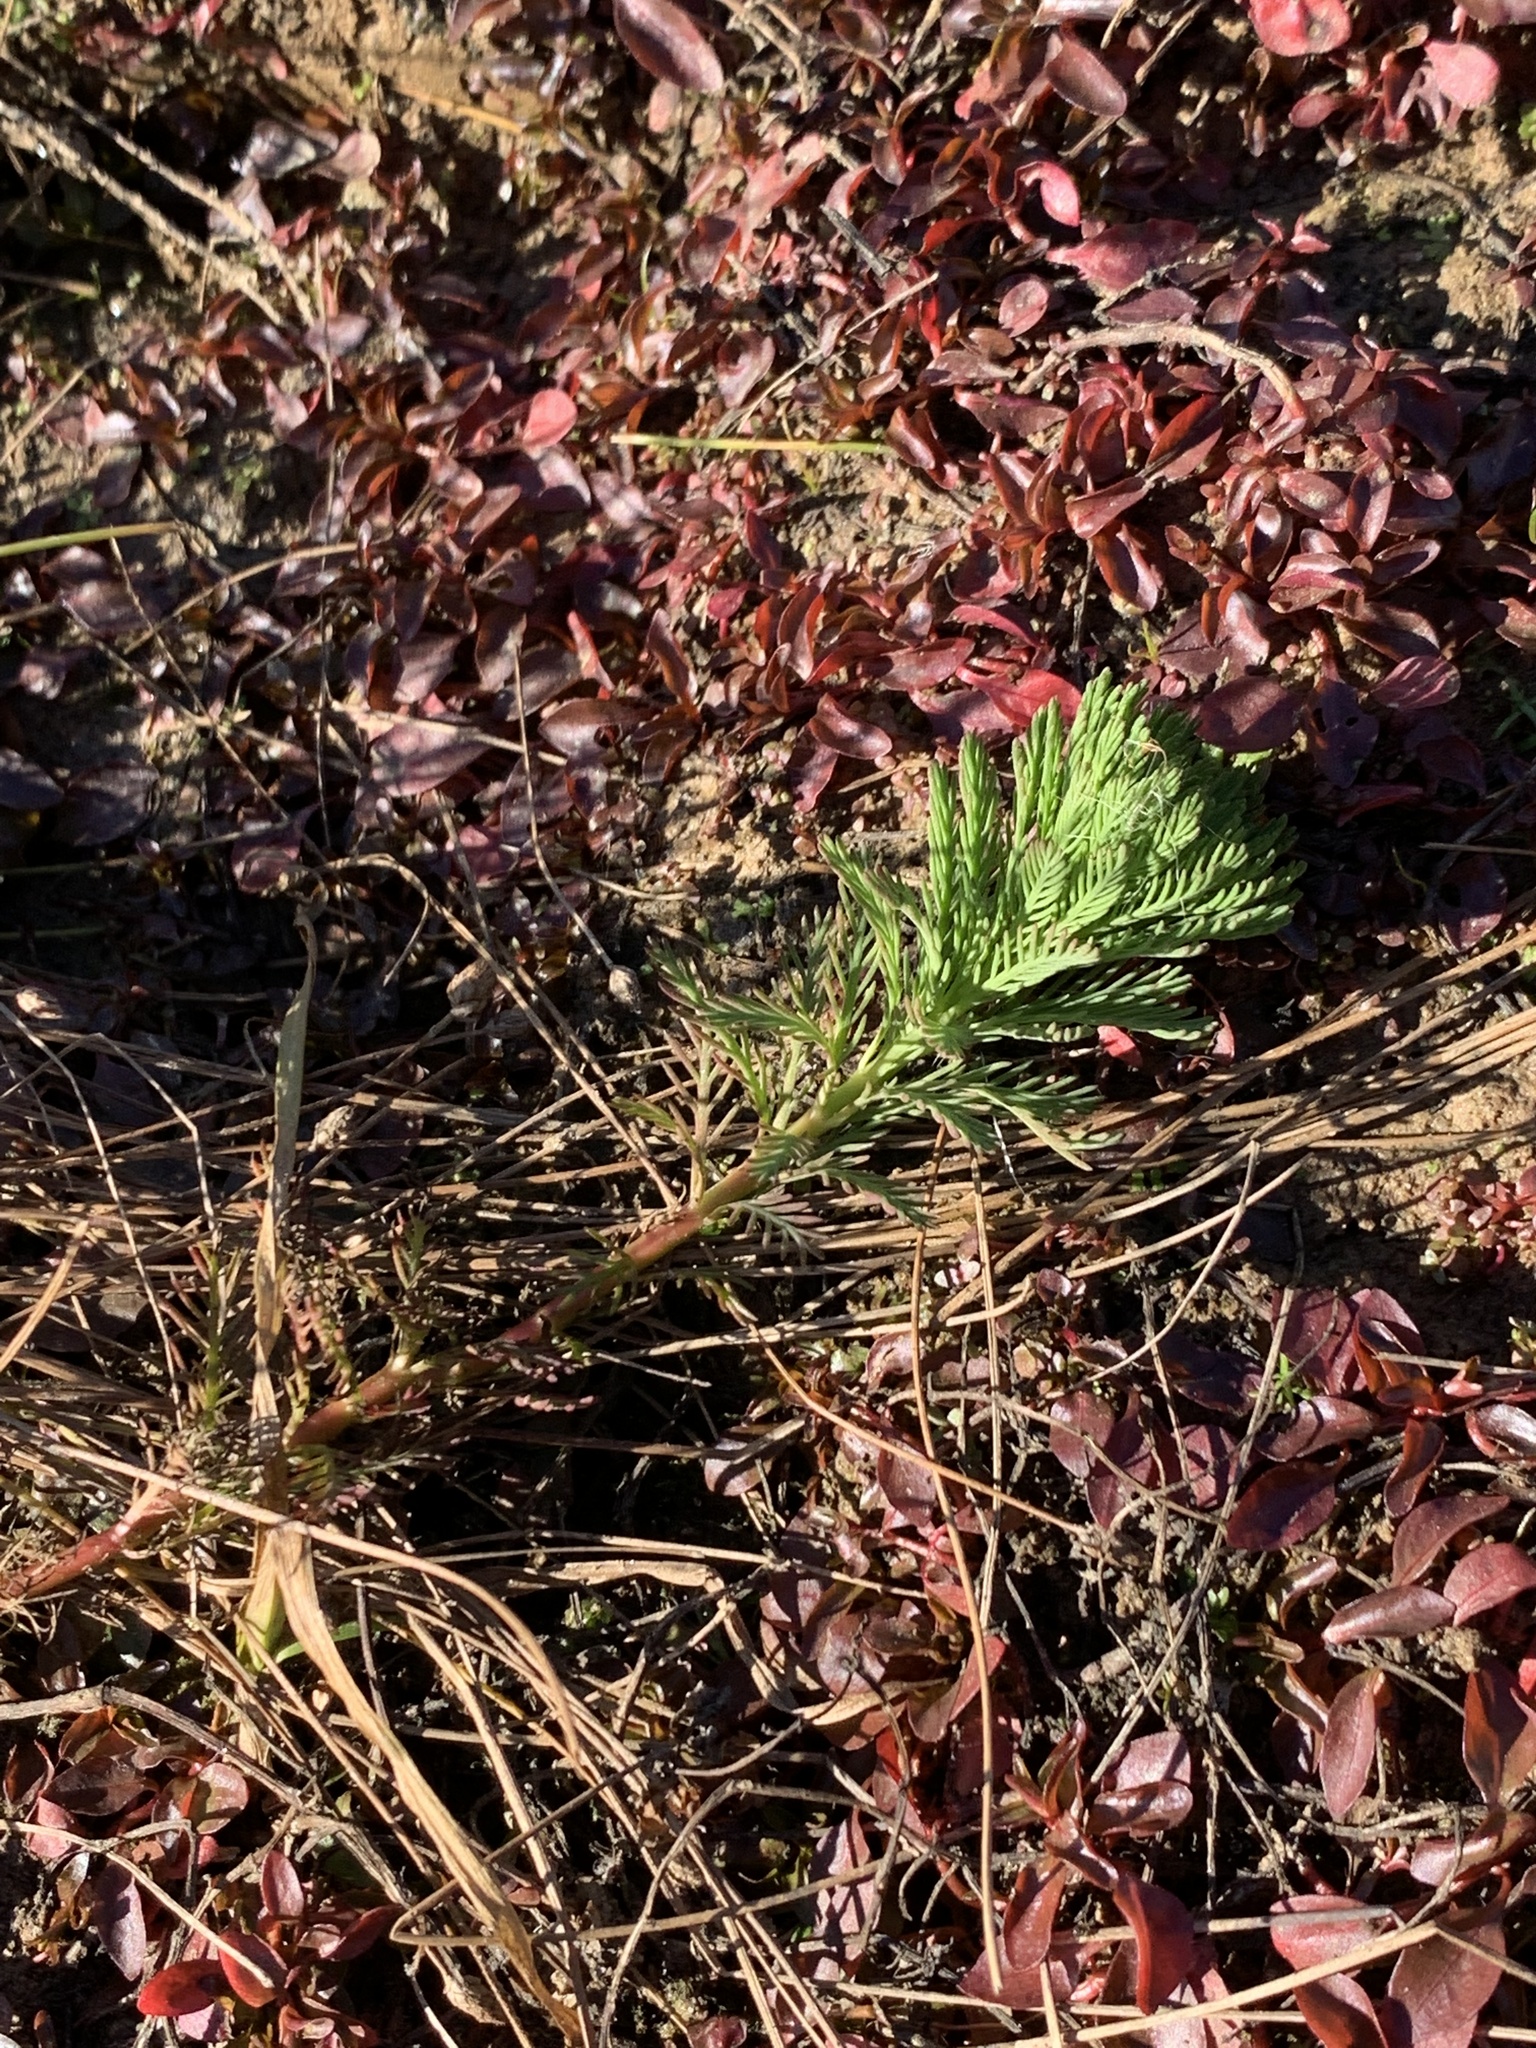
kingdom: Plantae
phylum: Tracheophyta
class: Magnoliopsida
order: Saxifragales
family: Haloragaceae
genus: Myriophyllum
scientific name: Myriophyllum aquaticum
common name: Parrot's feather
